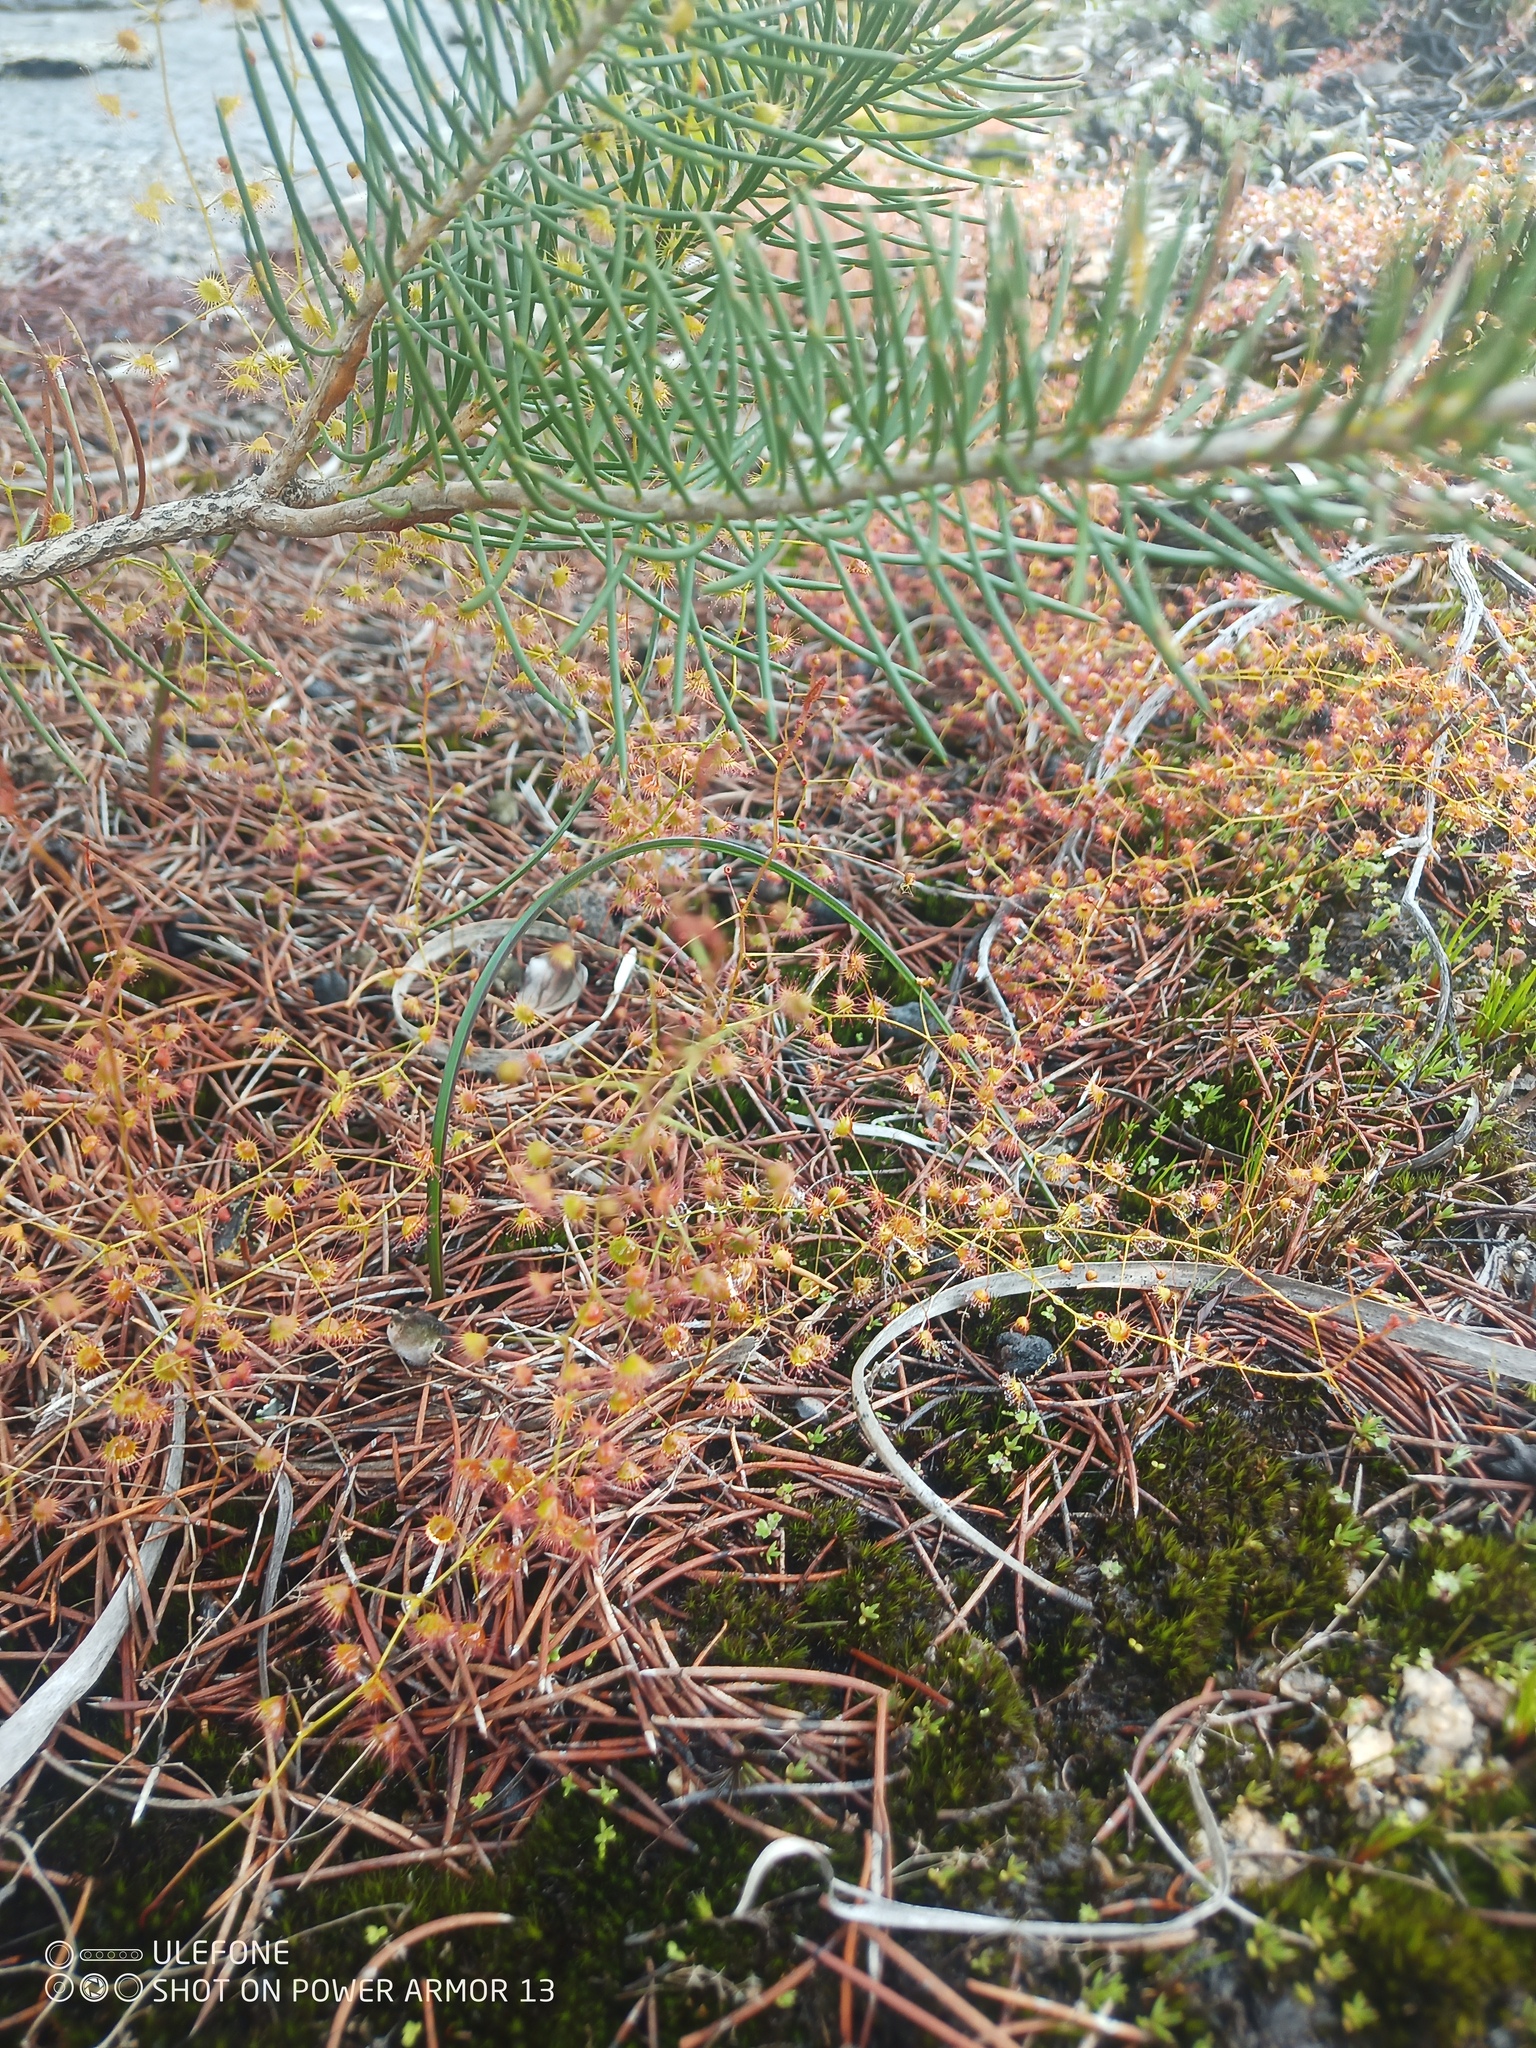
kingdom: Plantae
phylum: Tracheophyta
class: Magnoliopsida
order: Caryophyllales
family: Droseraceae
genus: Drosera
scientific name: Drosera macrantha
